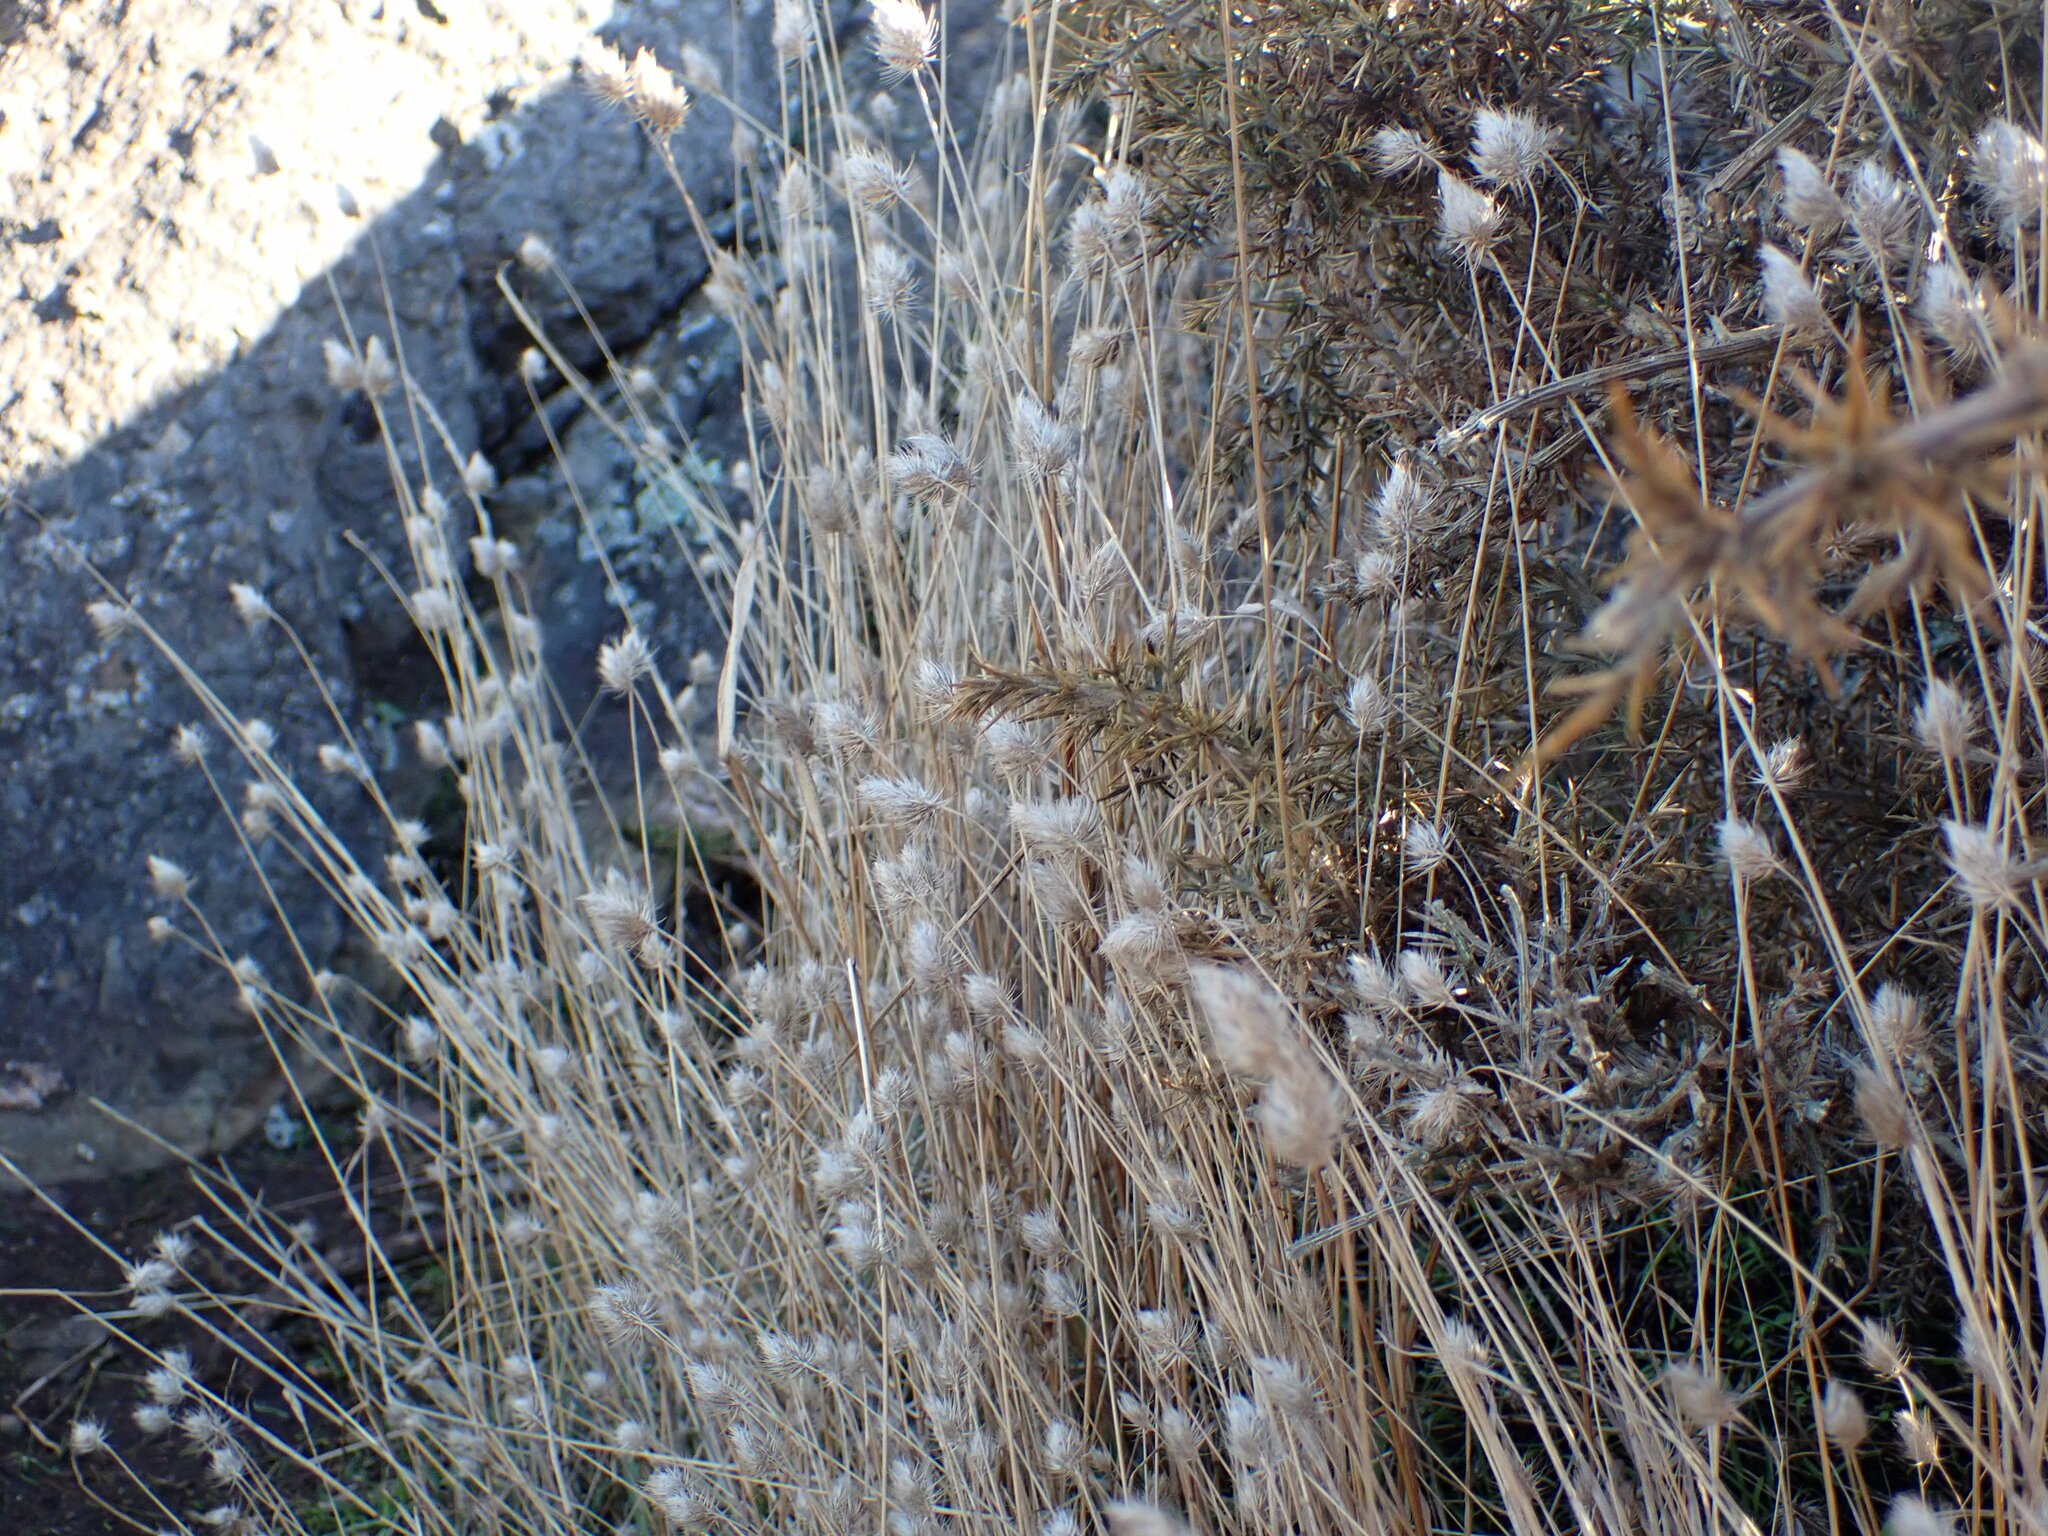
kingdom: Plantae
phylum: Tracheophyta
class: Liliopsida
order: Poales
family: Poaceae
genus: Cynosurus
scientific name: Cynosurus echinatus
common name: Rough dog's-tail
